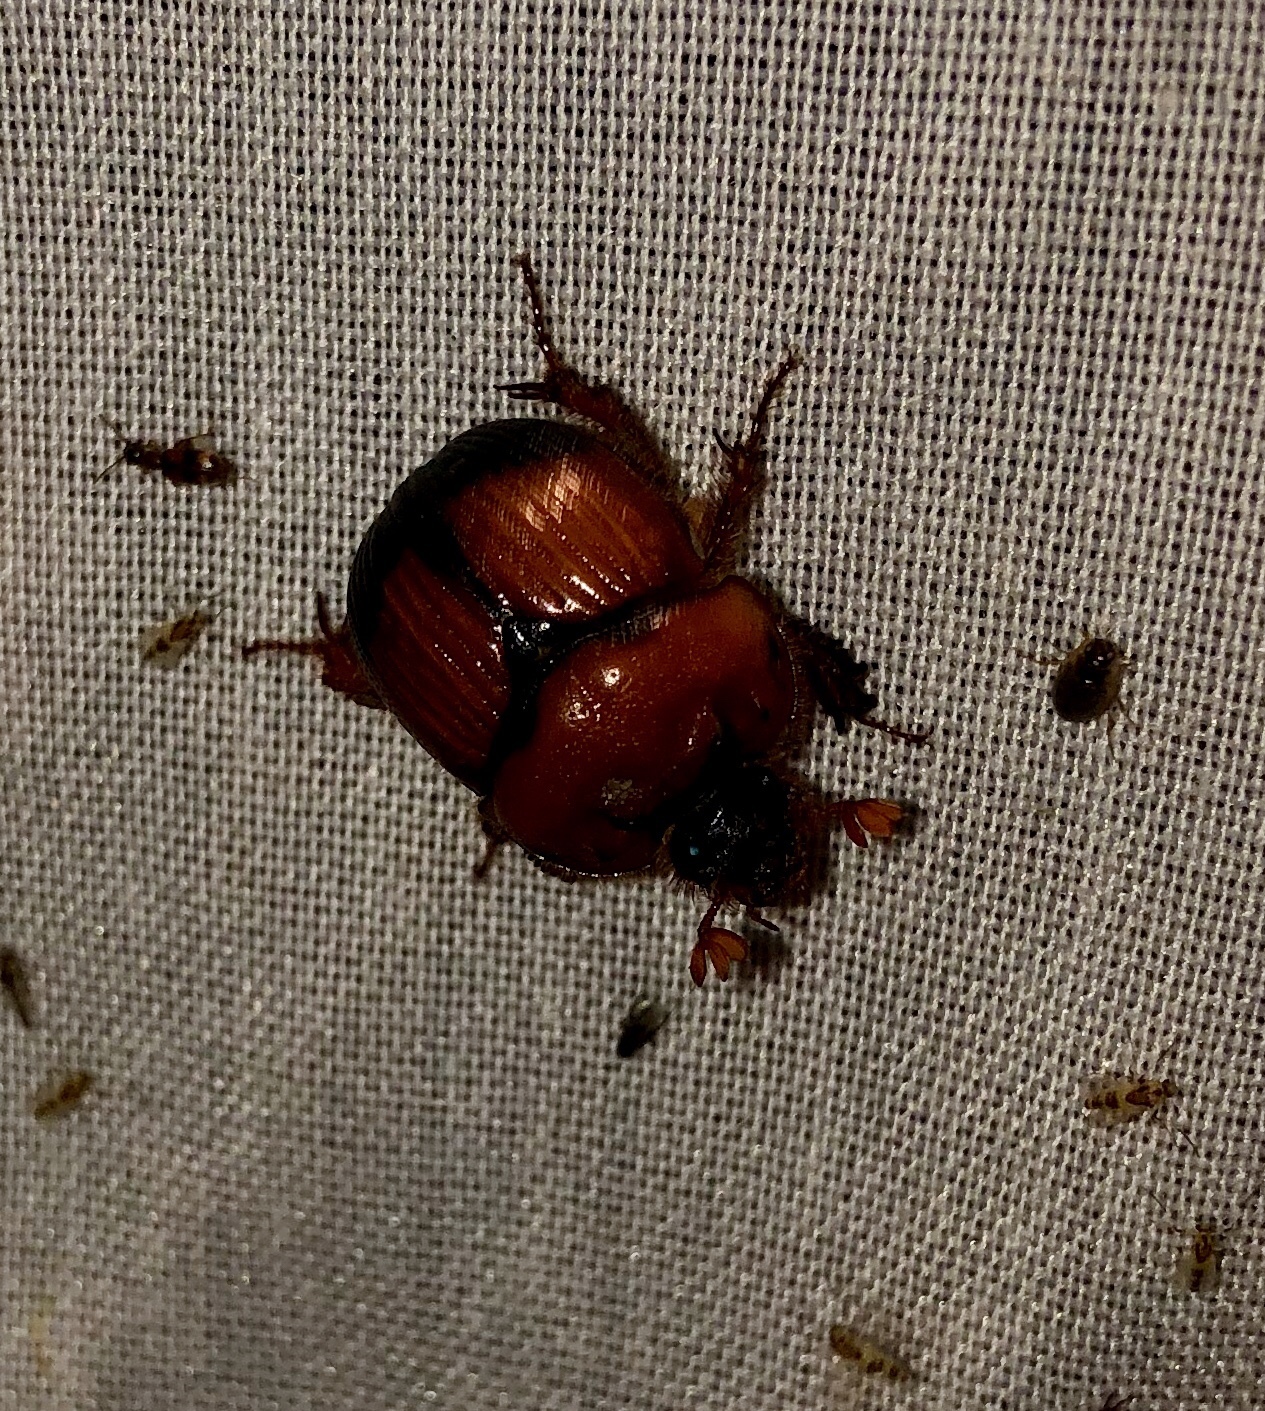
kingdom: Animalia
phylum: Arthropoda
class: Insecta
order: Coleoptera
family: Geotrupidae
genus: Bolbocerosoma
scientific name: Bolbocerosoma bruneri
